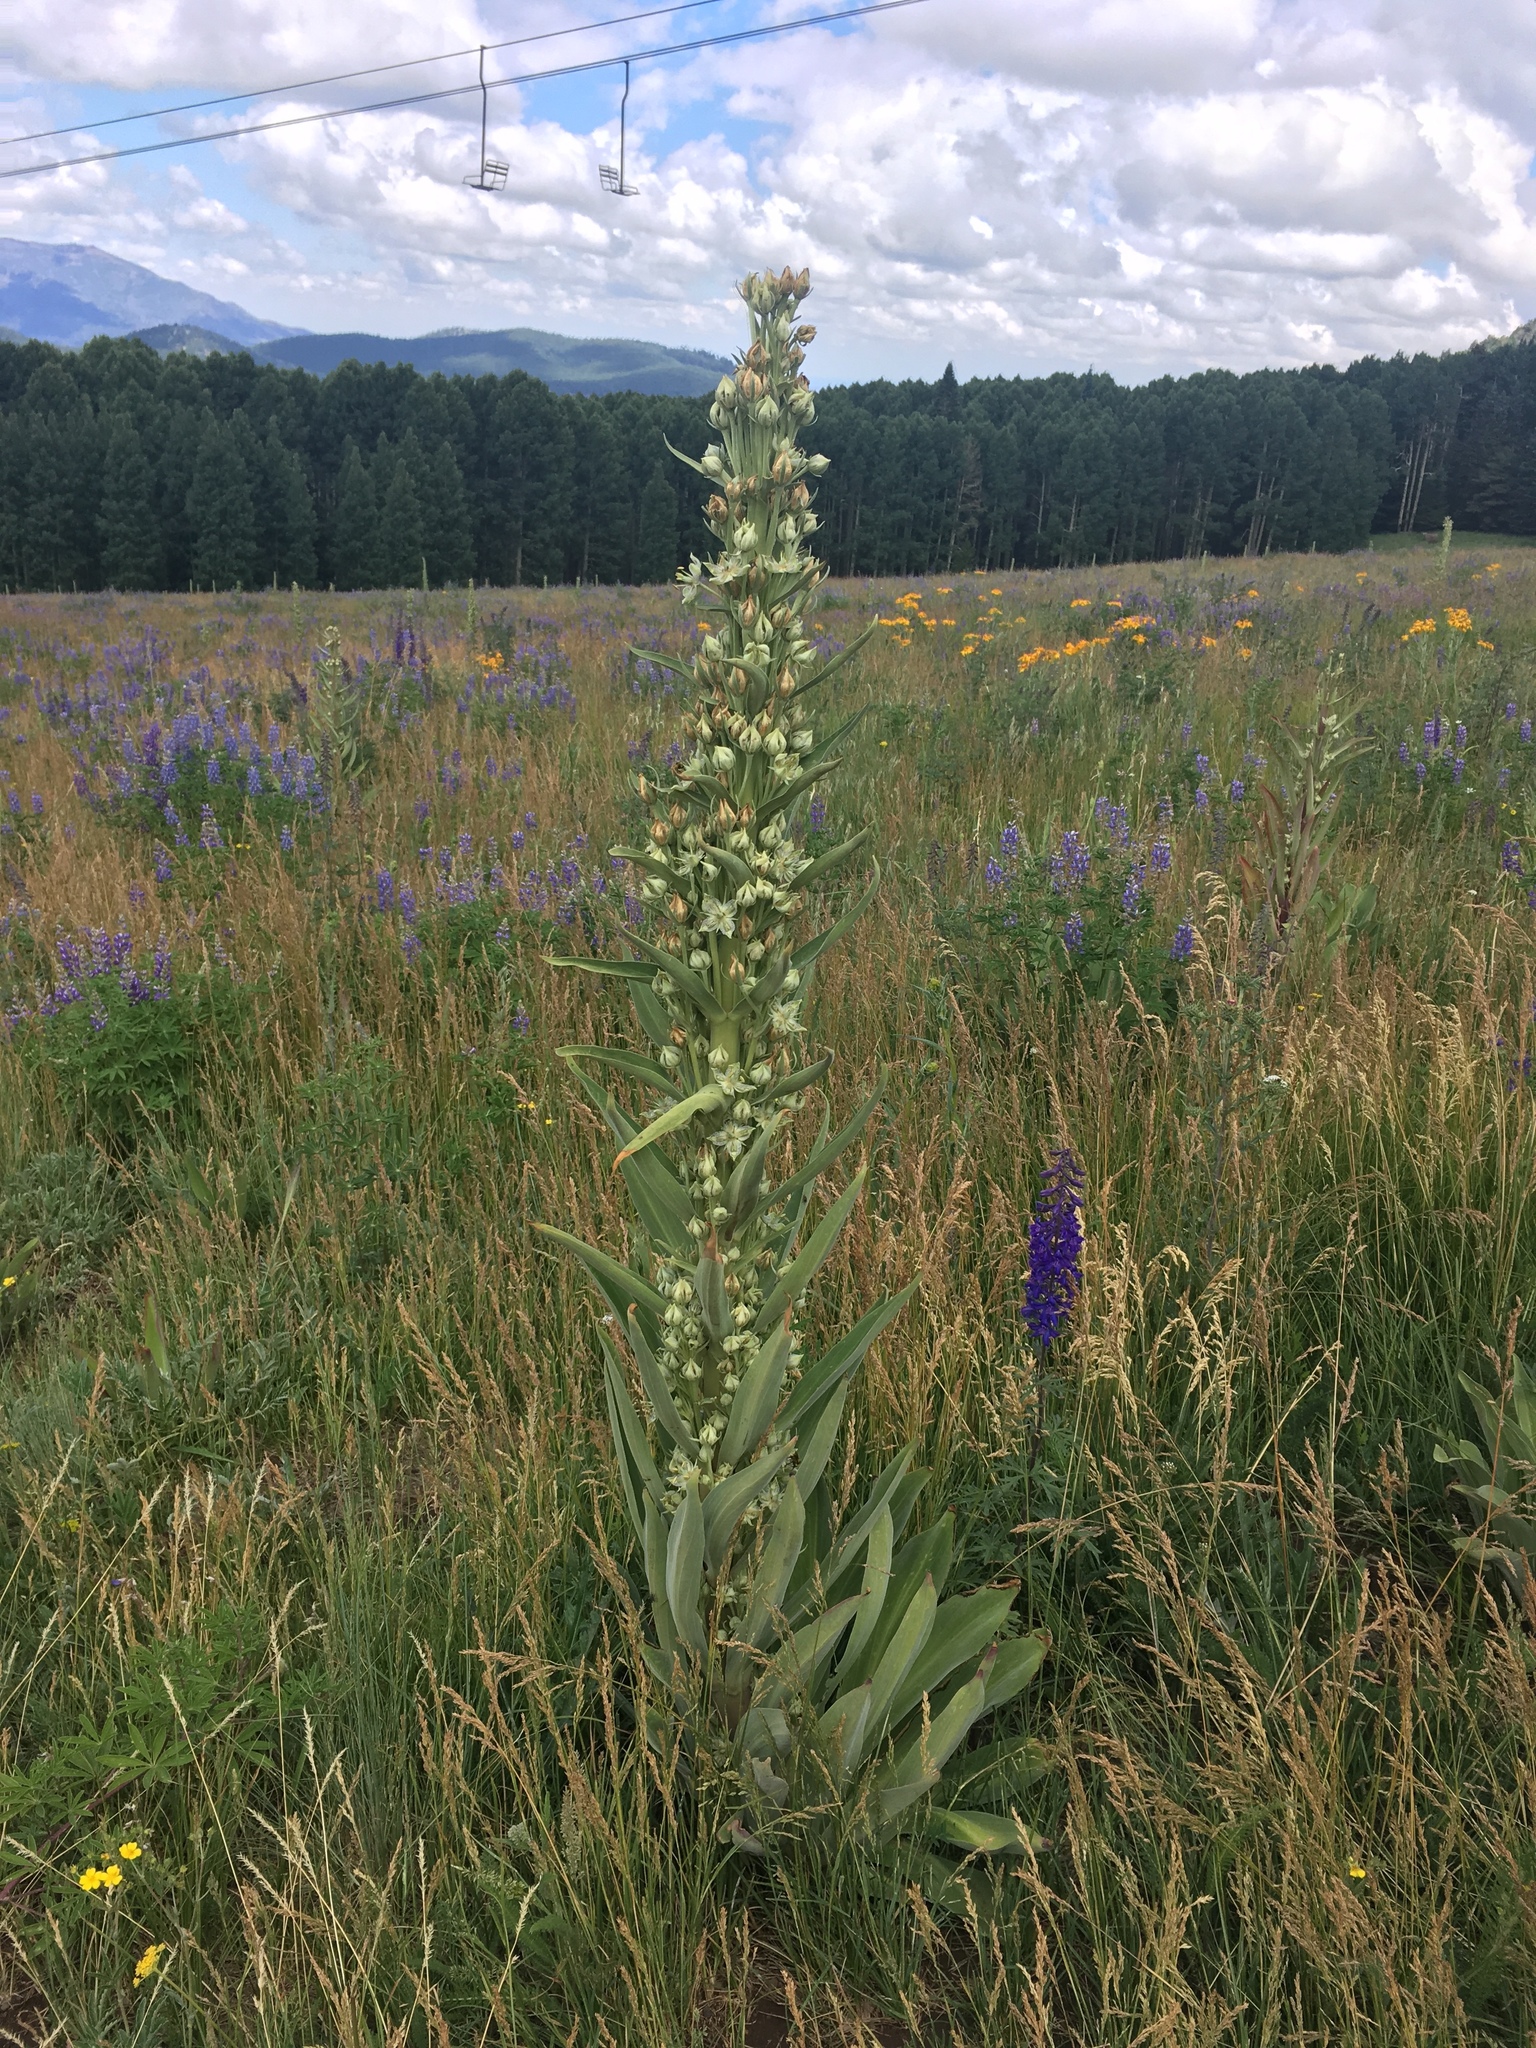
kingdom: Plantae
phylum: Tracheophyta
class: Magnoliopsida
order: Gentianales
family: Gentianaceae
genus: Frasera
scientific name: Frasera speciosa
